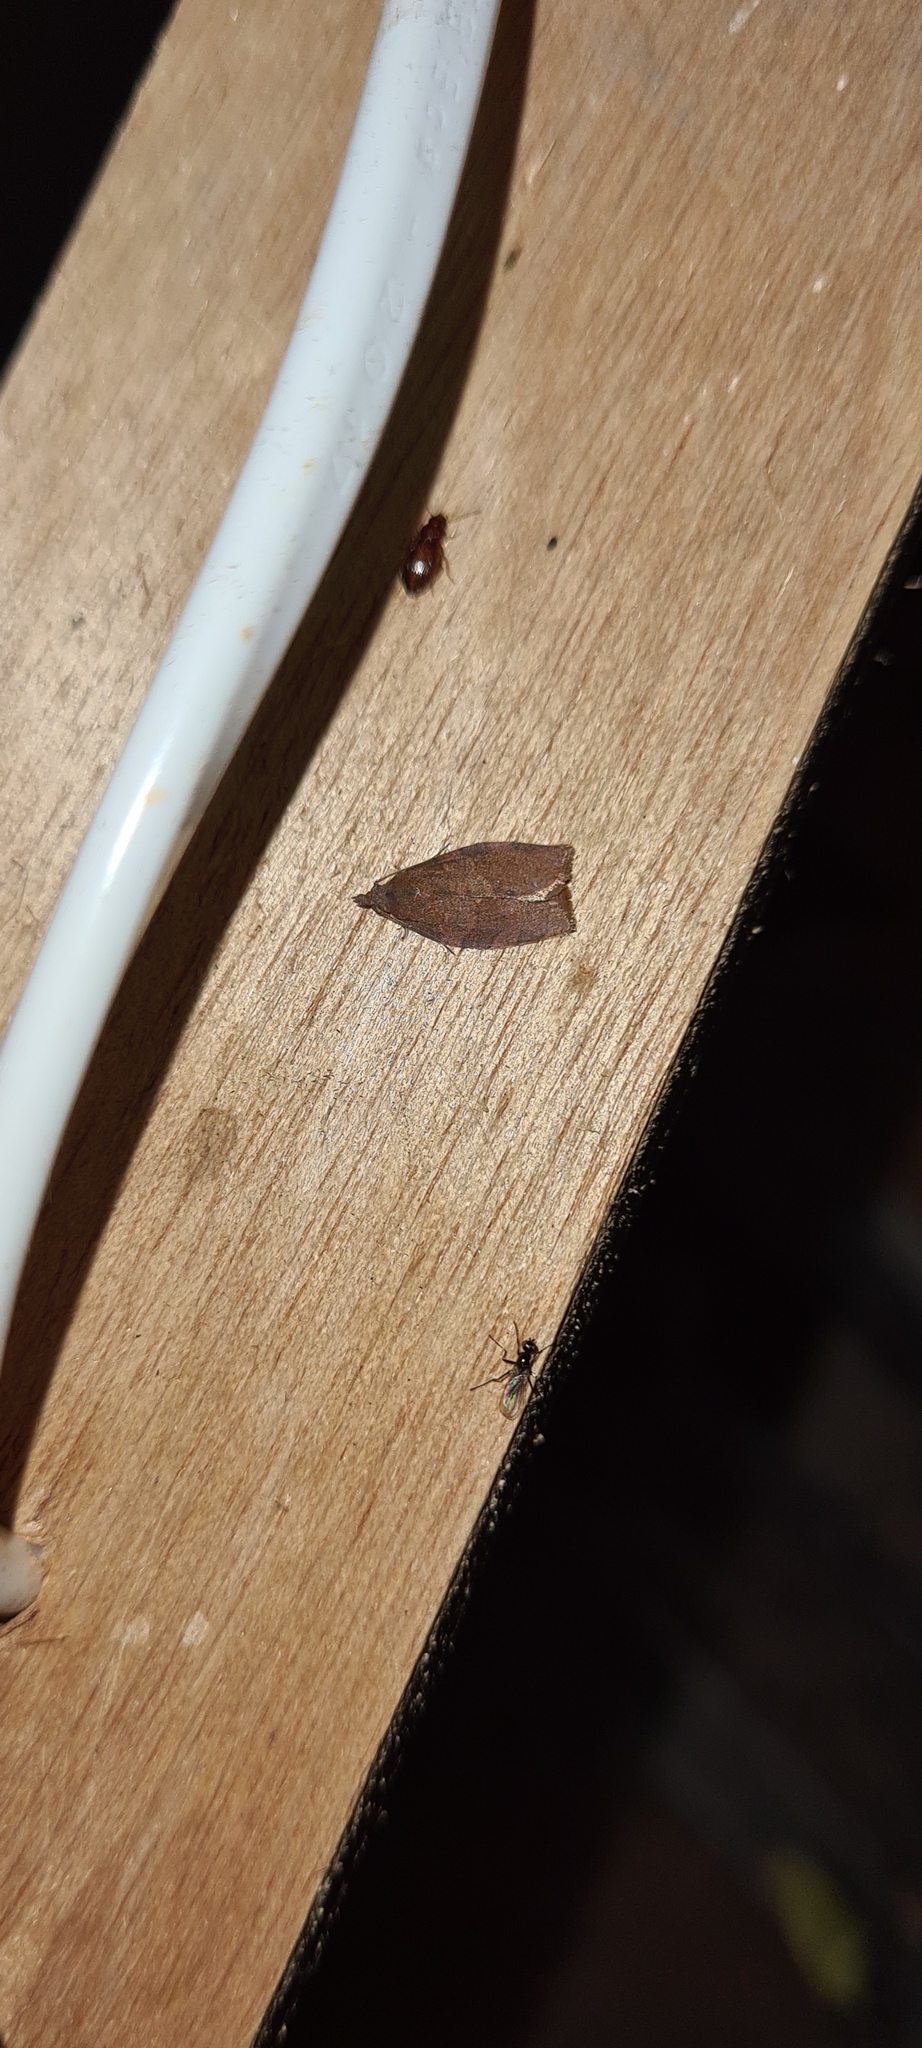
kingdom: Animalia
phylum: Arthropoda
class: Insecta
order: Lepidoptera
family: Tortricidae
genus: Pandemis
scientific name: Pandemis heparana
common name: Dark fruit-tree tortrix
